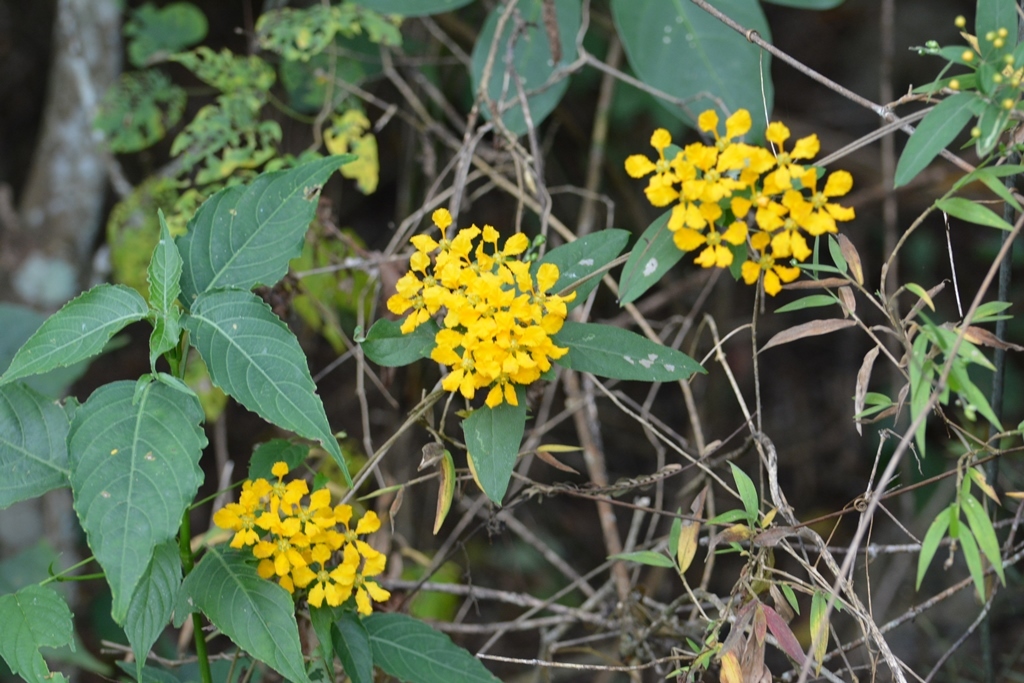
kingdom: Plantae
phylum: Tracheophyta
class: Magnoliopsida
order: Malpighiales
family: Malpighiaceae
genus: Gaudichaudia
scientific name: Gaudichaudia hexandra
